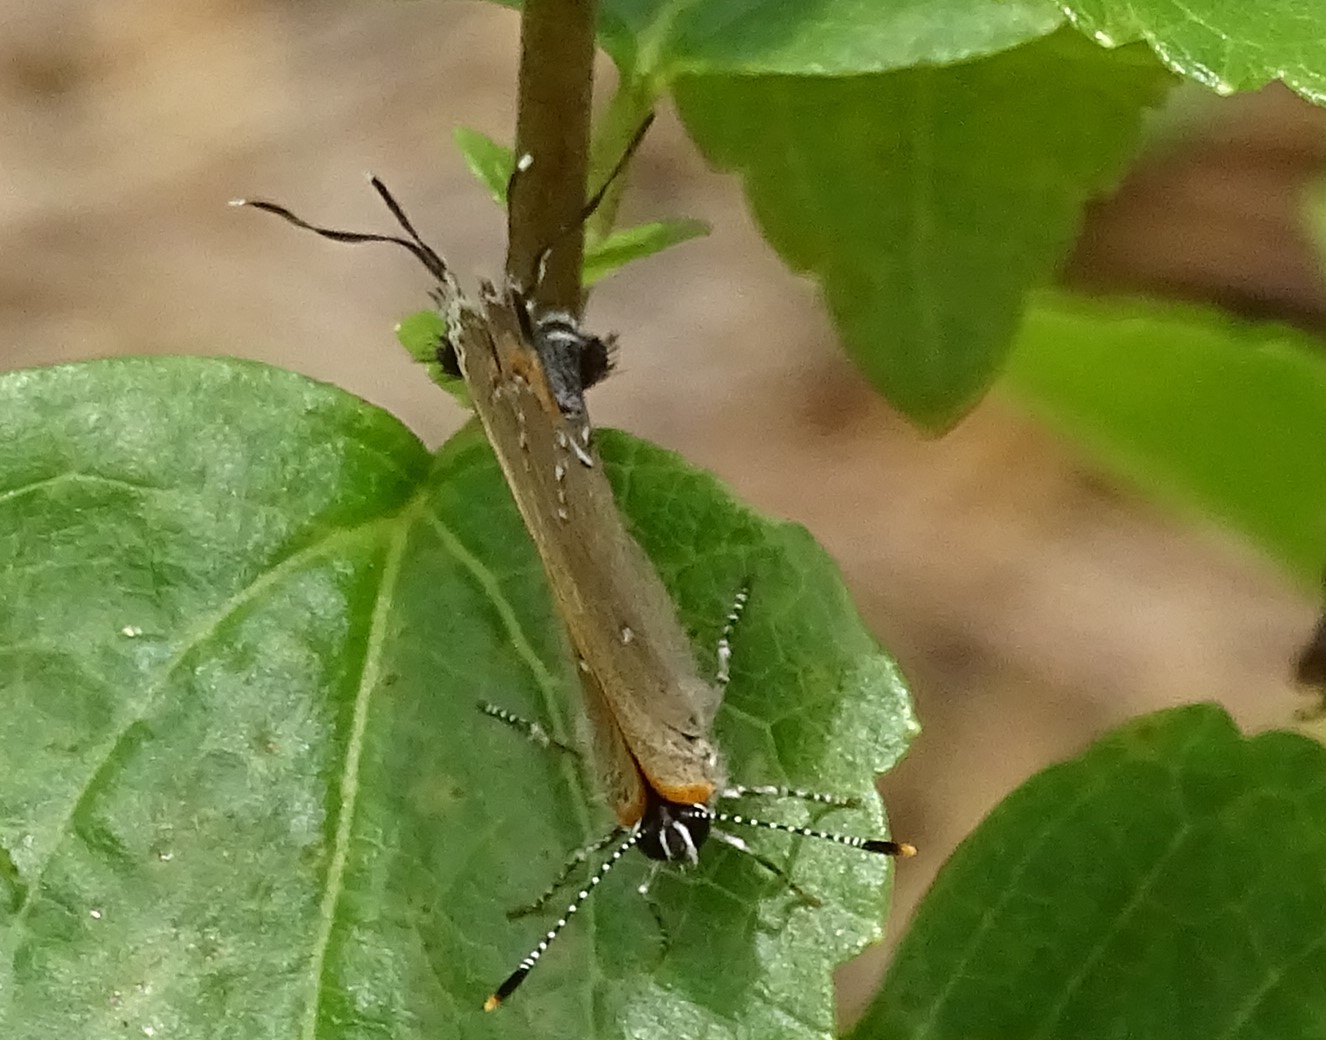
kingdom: Animalia
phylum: Arthropoda
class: Insecta
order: Lepidoptera
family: Lycaenidae
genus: Fixsenia
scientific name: Fixsenia favonius
